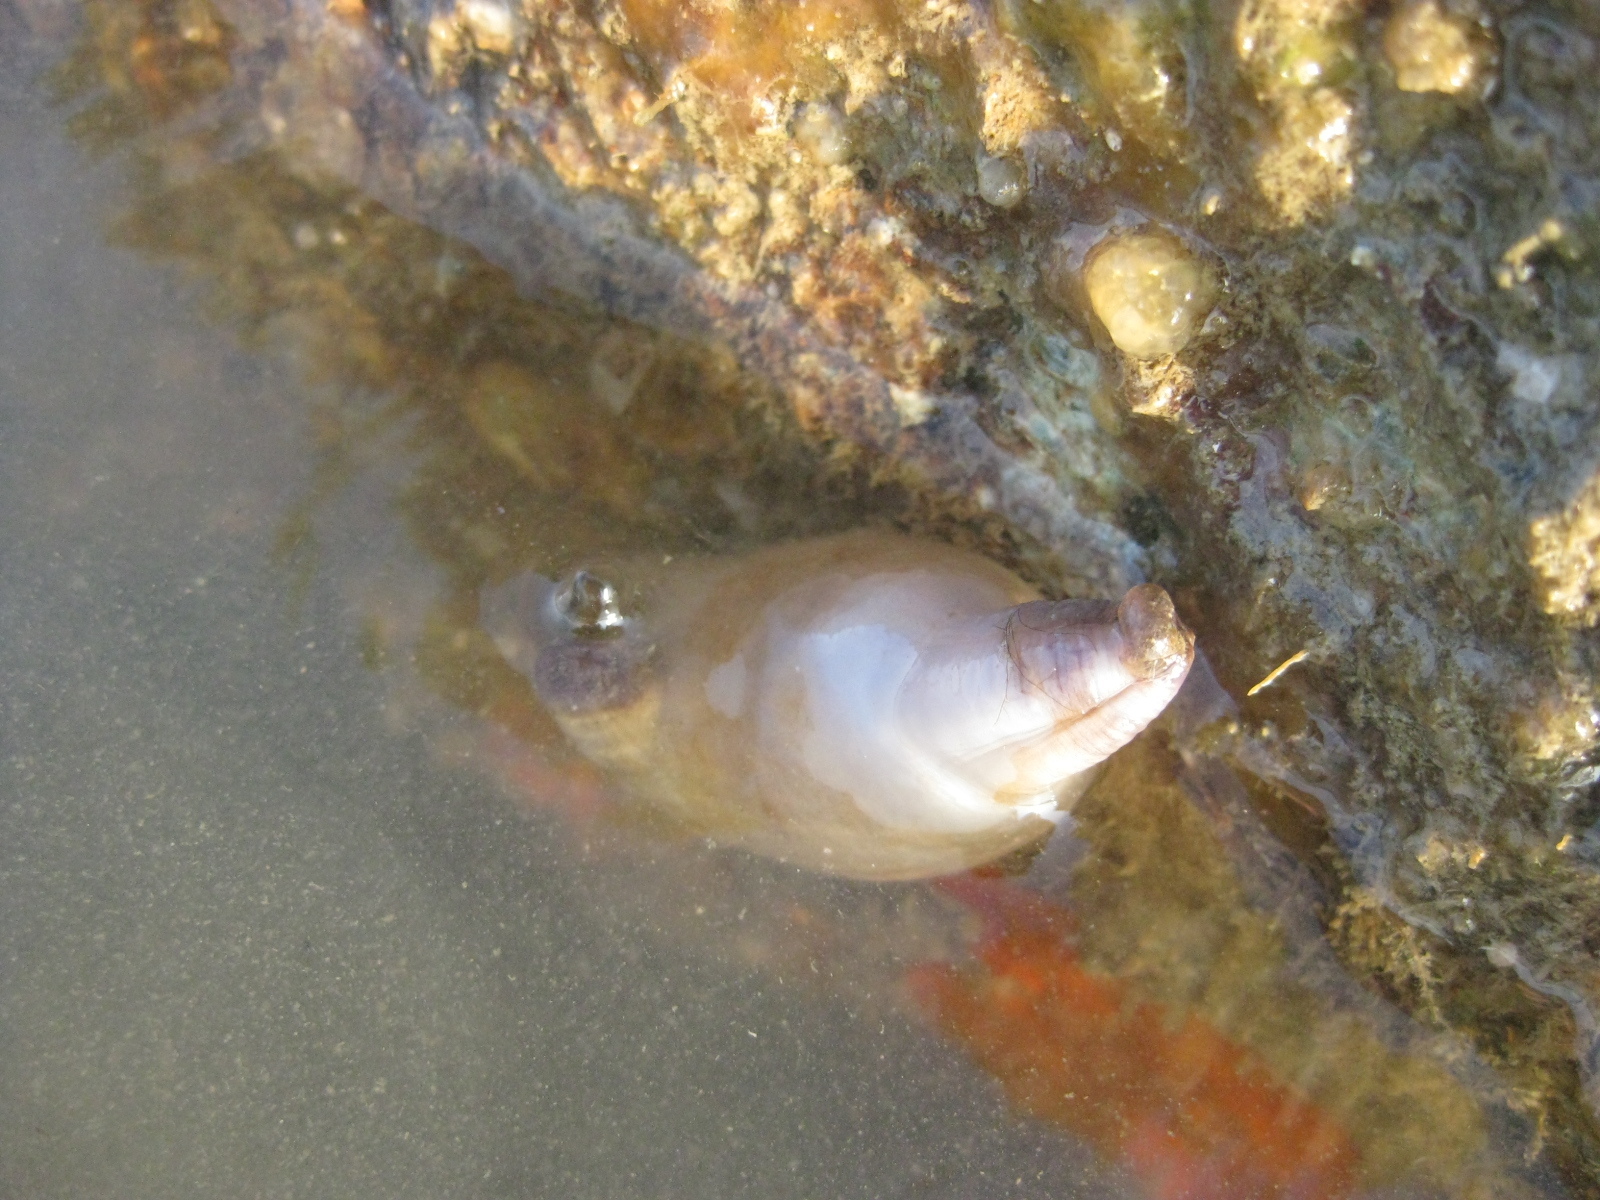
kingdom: Animalia
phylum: Chordata
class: Ascidiacea
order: Stolidobranchia
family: Styelidae
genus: Asterocarpa
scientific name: Asterocarpa coerulea
